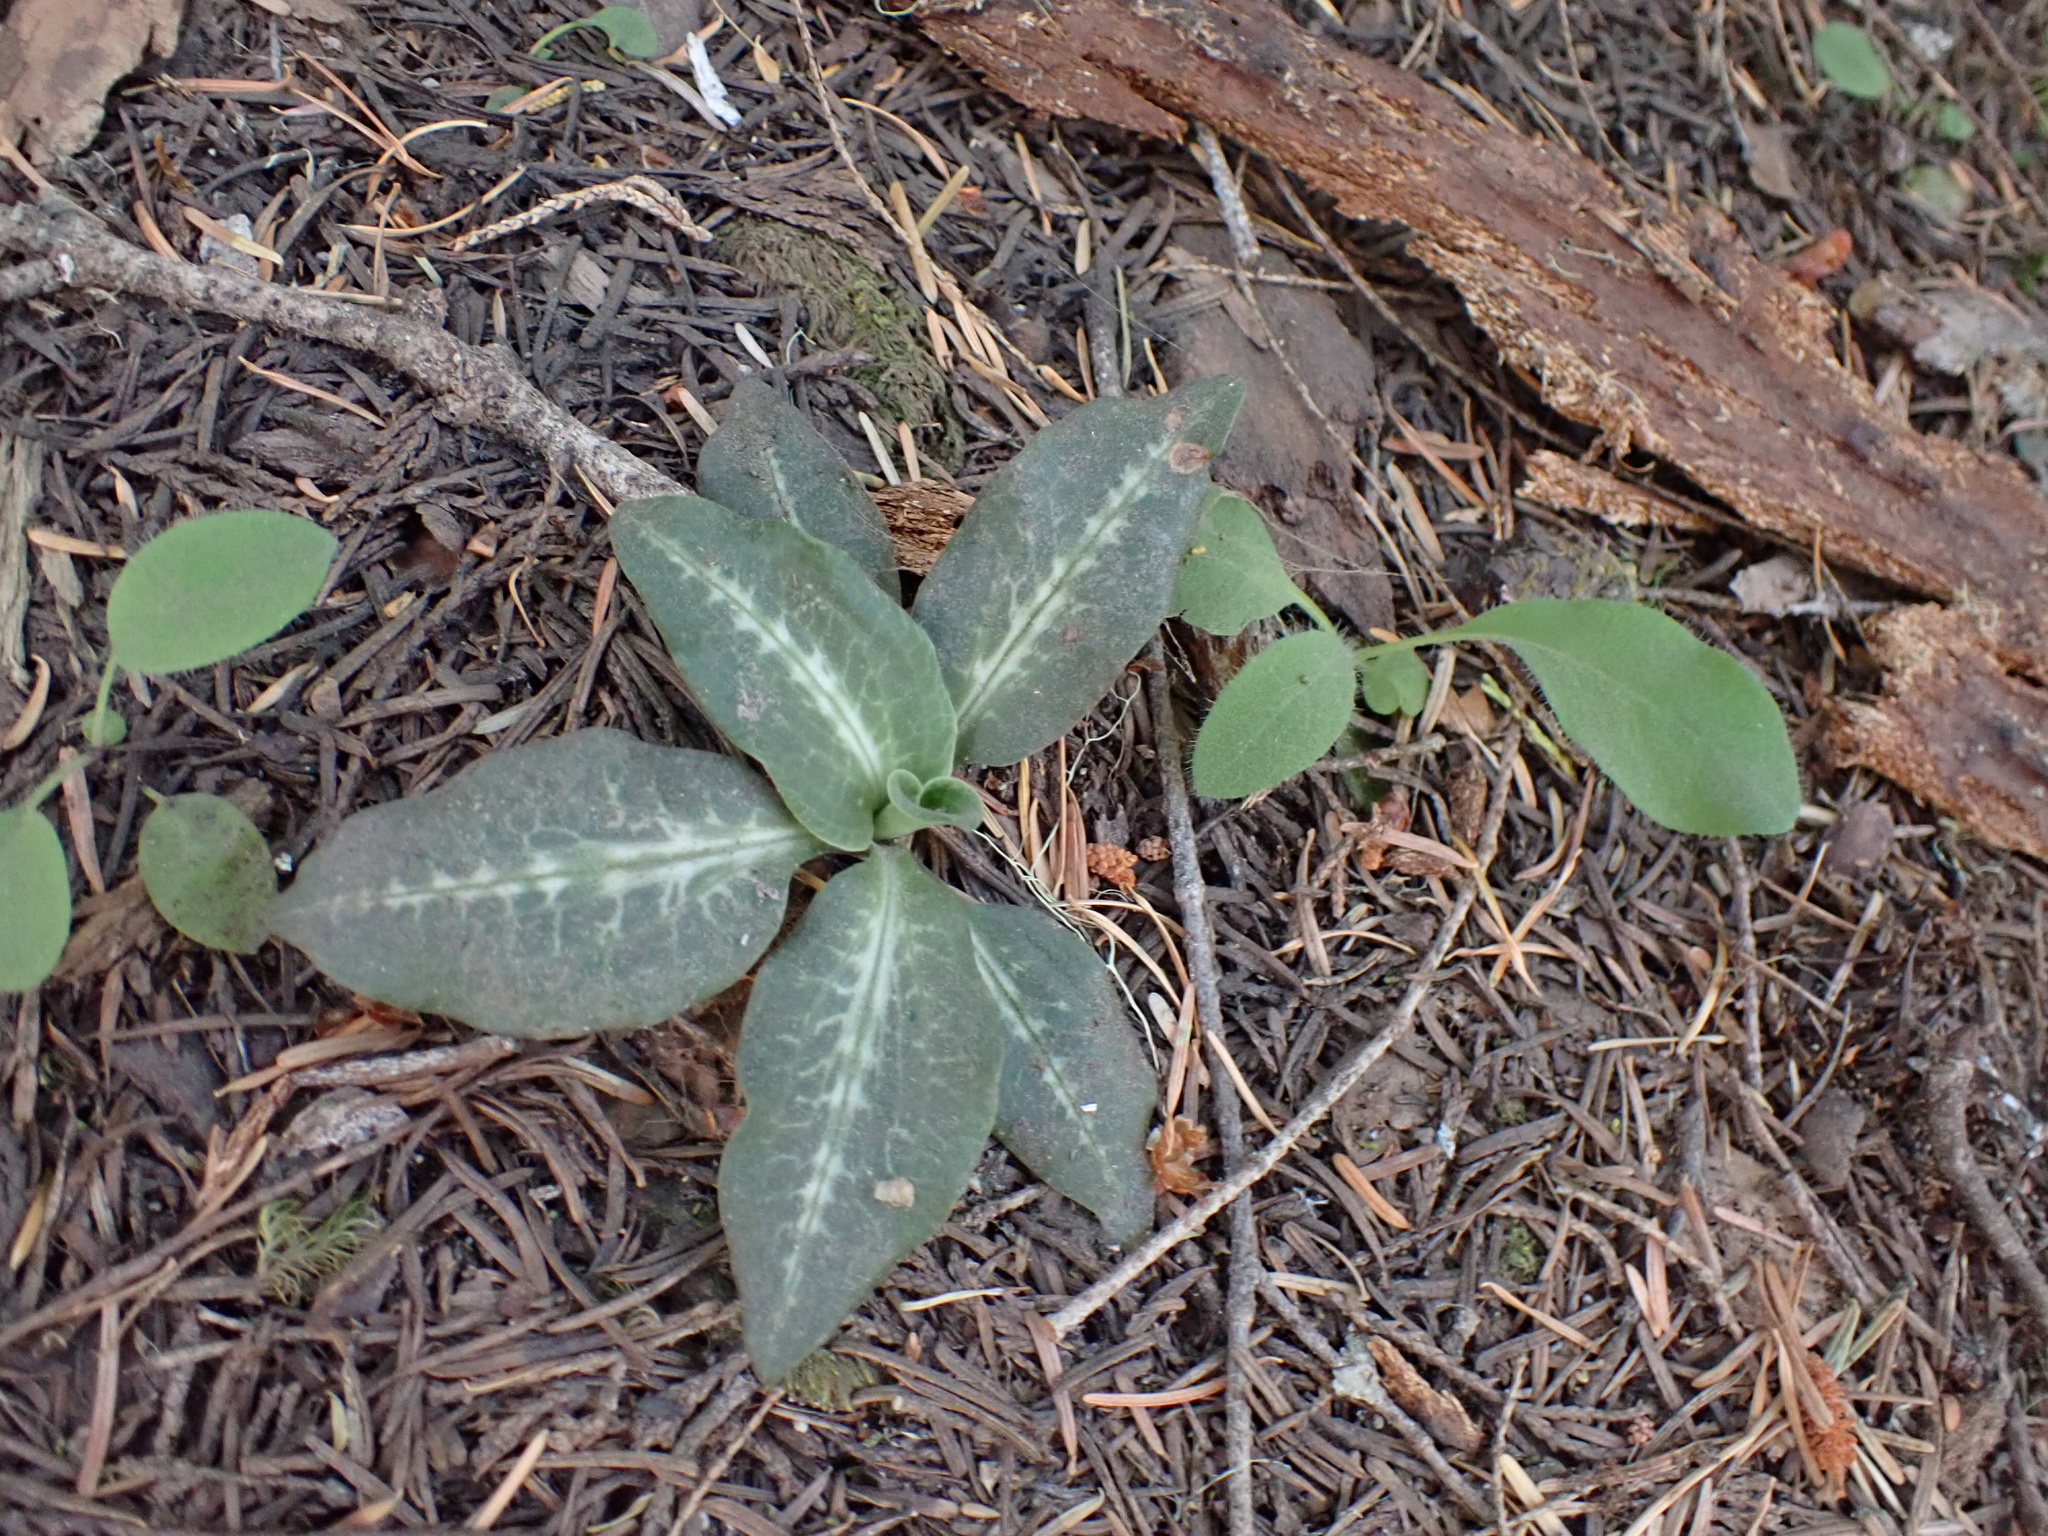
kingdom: Plantae
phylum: Tracheophyta
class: Liliopsida
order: Asparagales
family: Orchidaceae
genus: Goodyera
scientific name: Goodyera oblongifolia
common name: Giant rattlesnake-plantain
